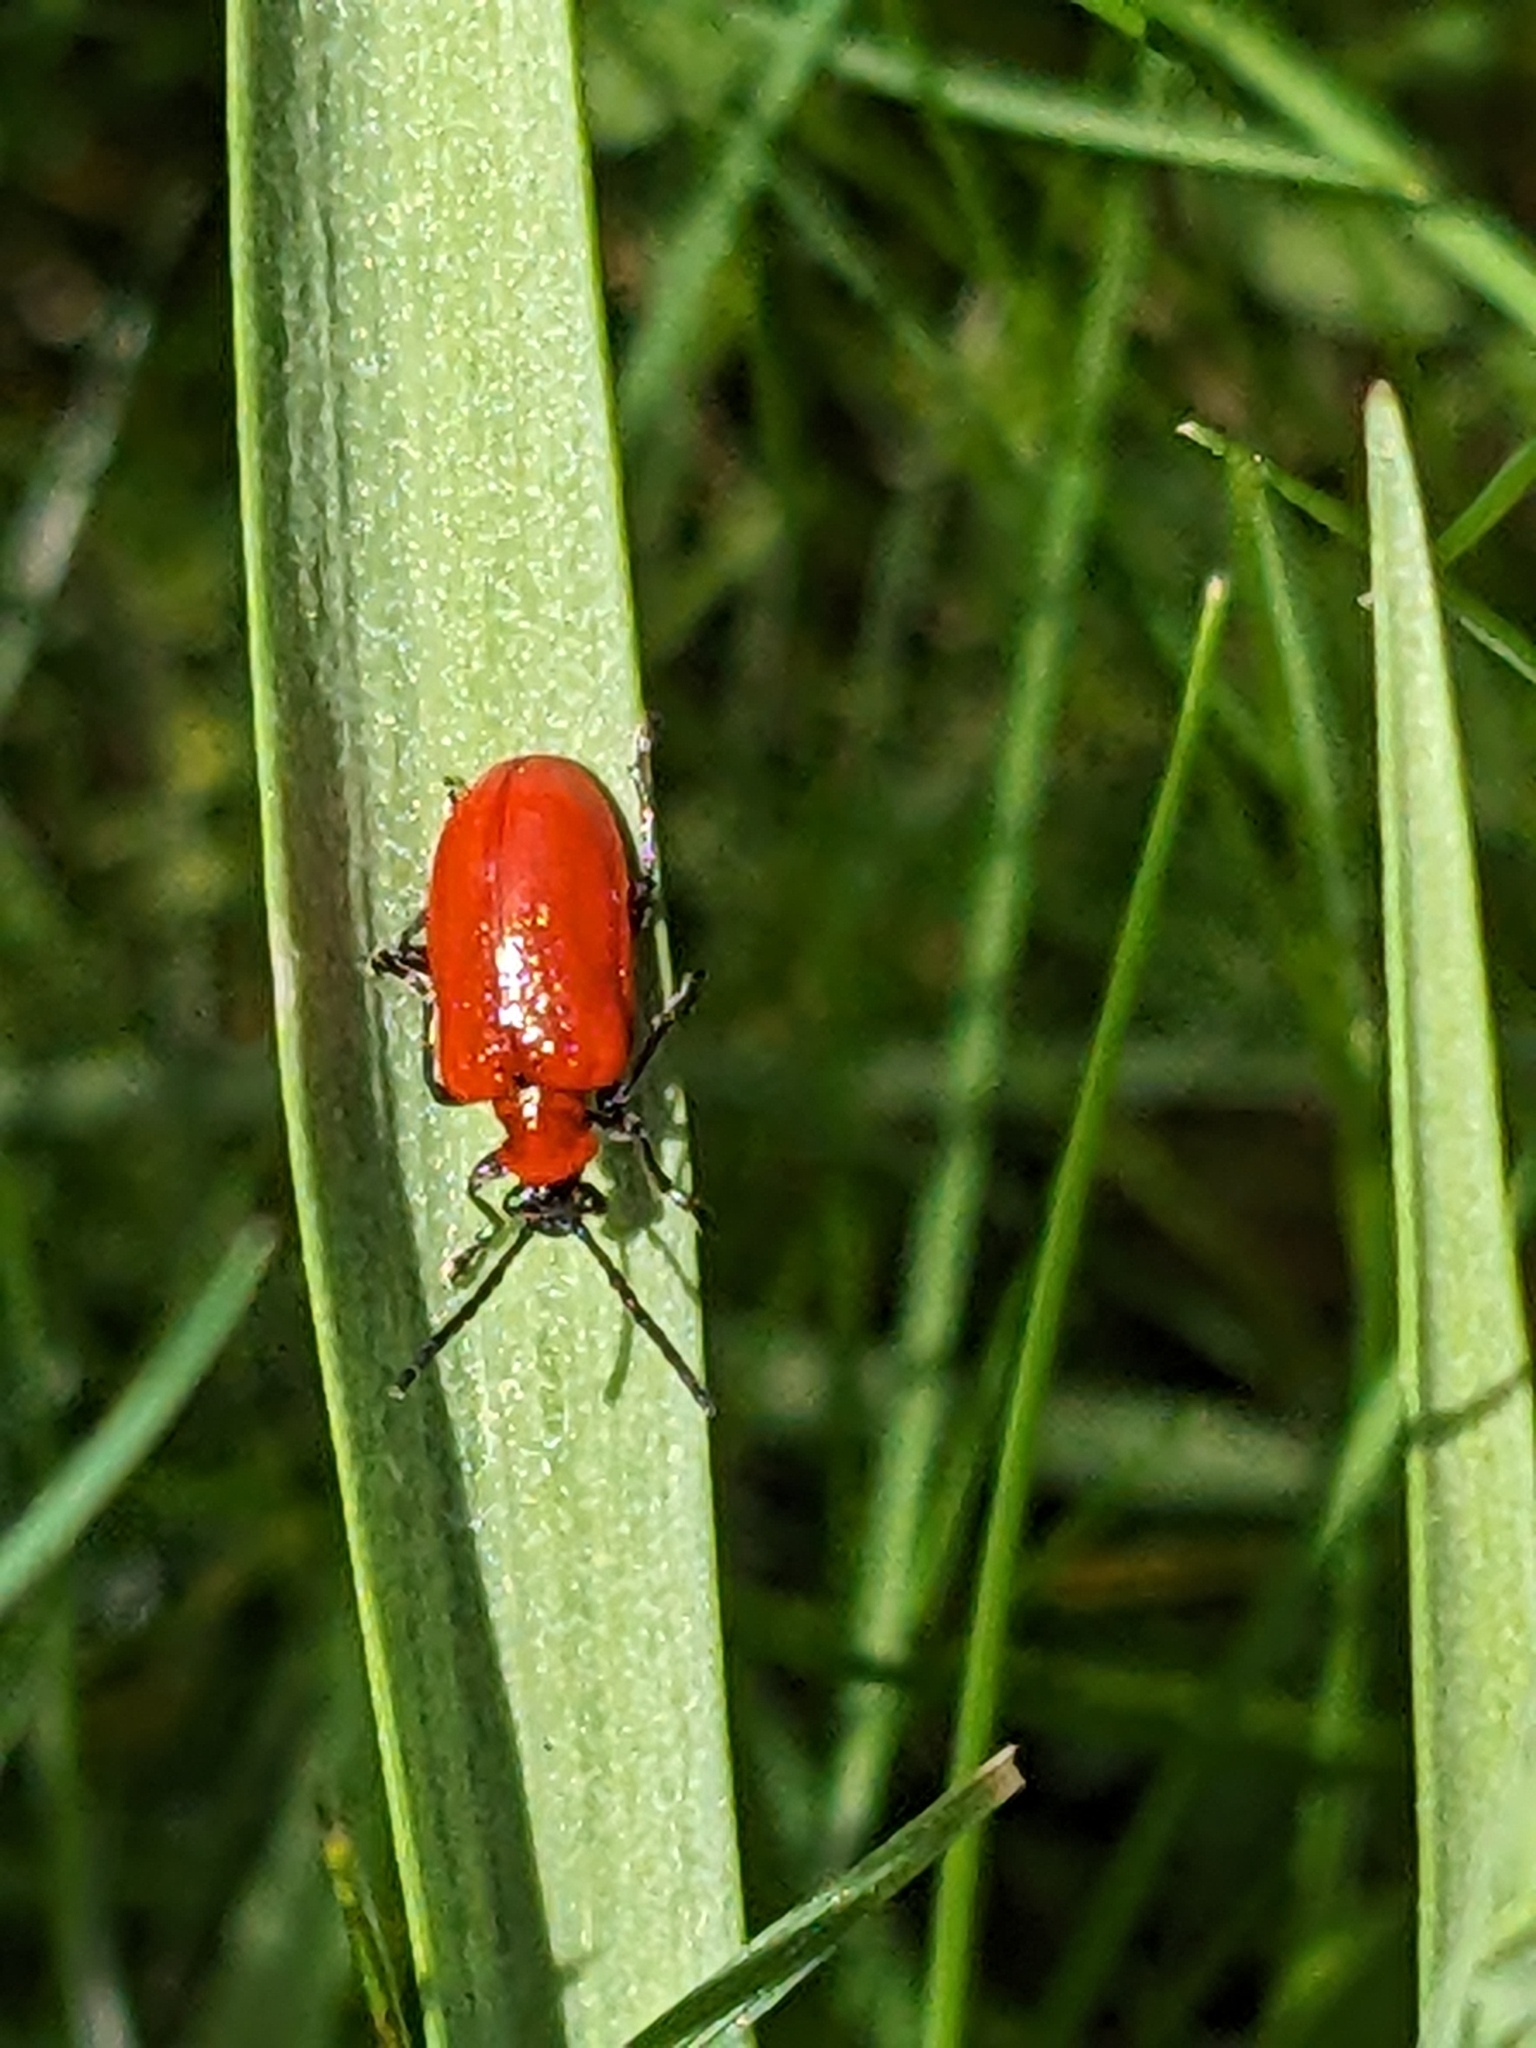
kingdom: Animalia
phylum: Arthropoda
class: Insecta
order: Coleoptera
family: Chrysomelidae
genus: Lilioceris
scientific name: Lilioceris lilii
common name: Lily beetle
